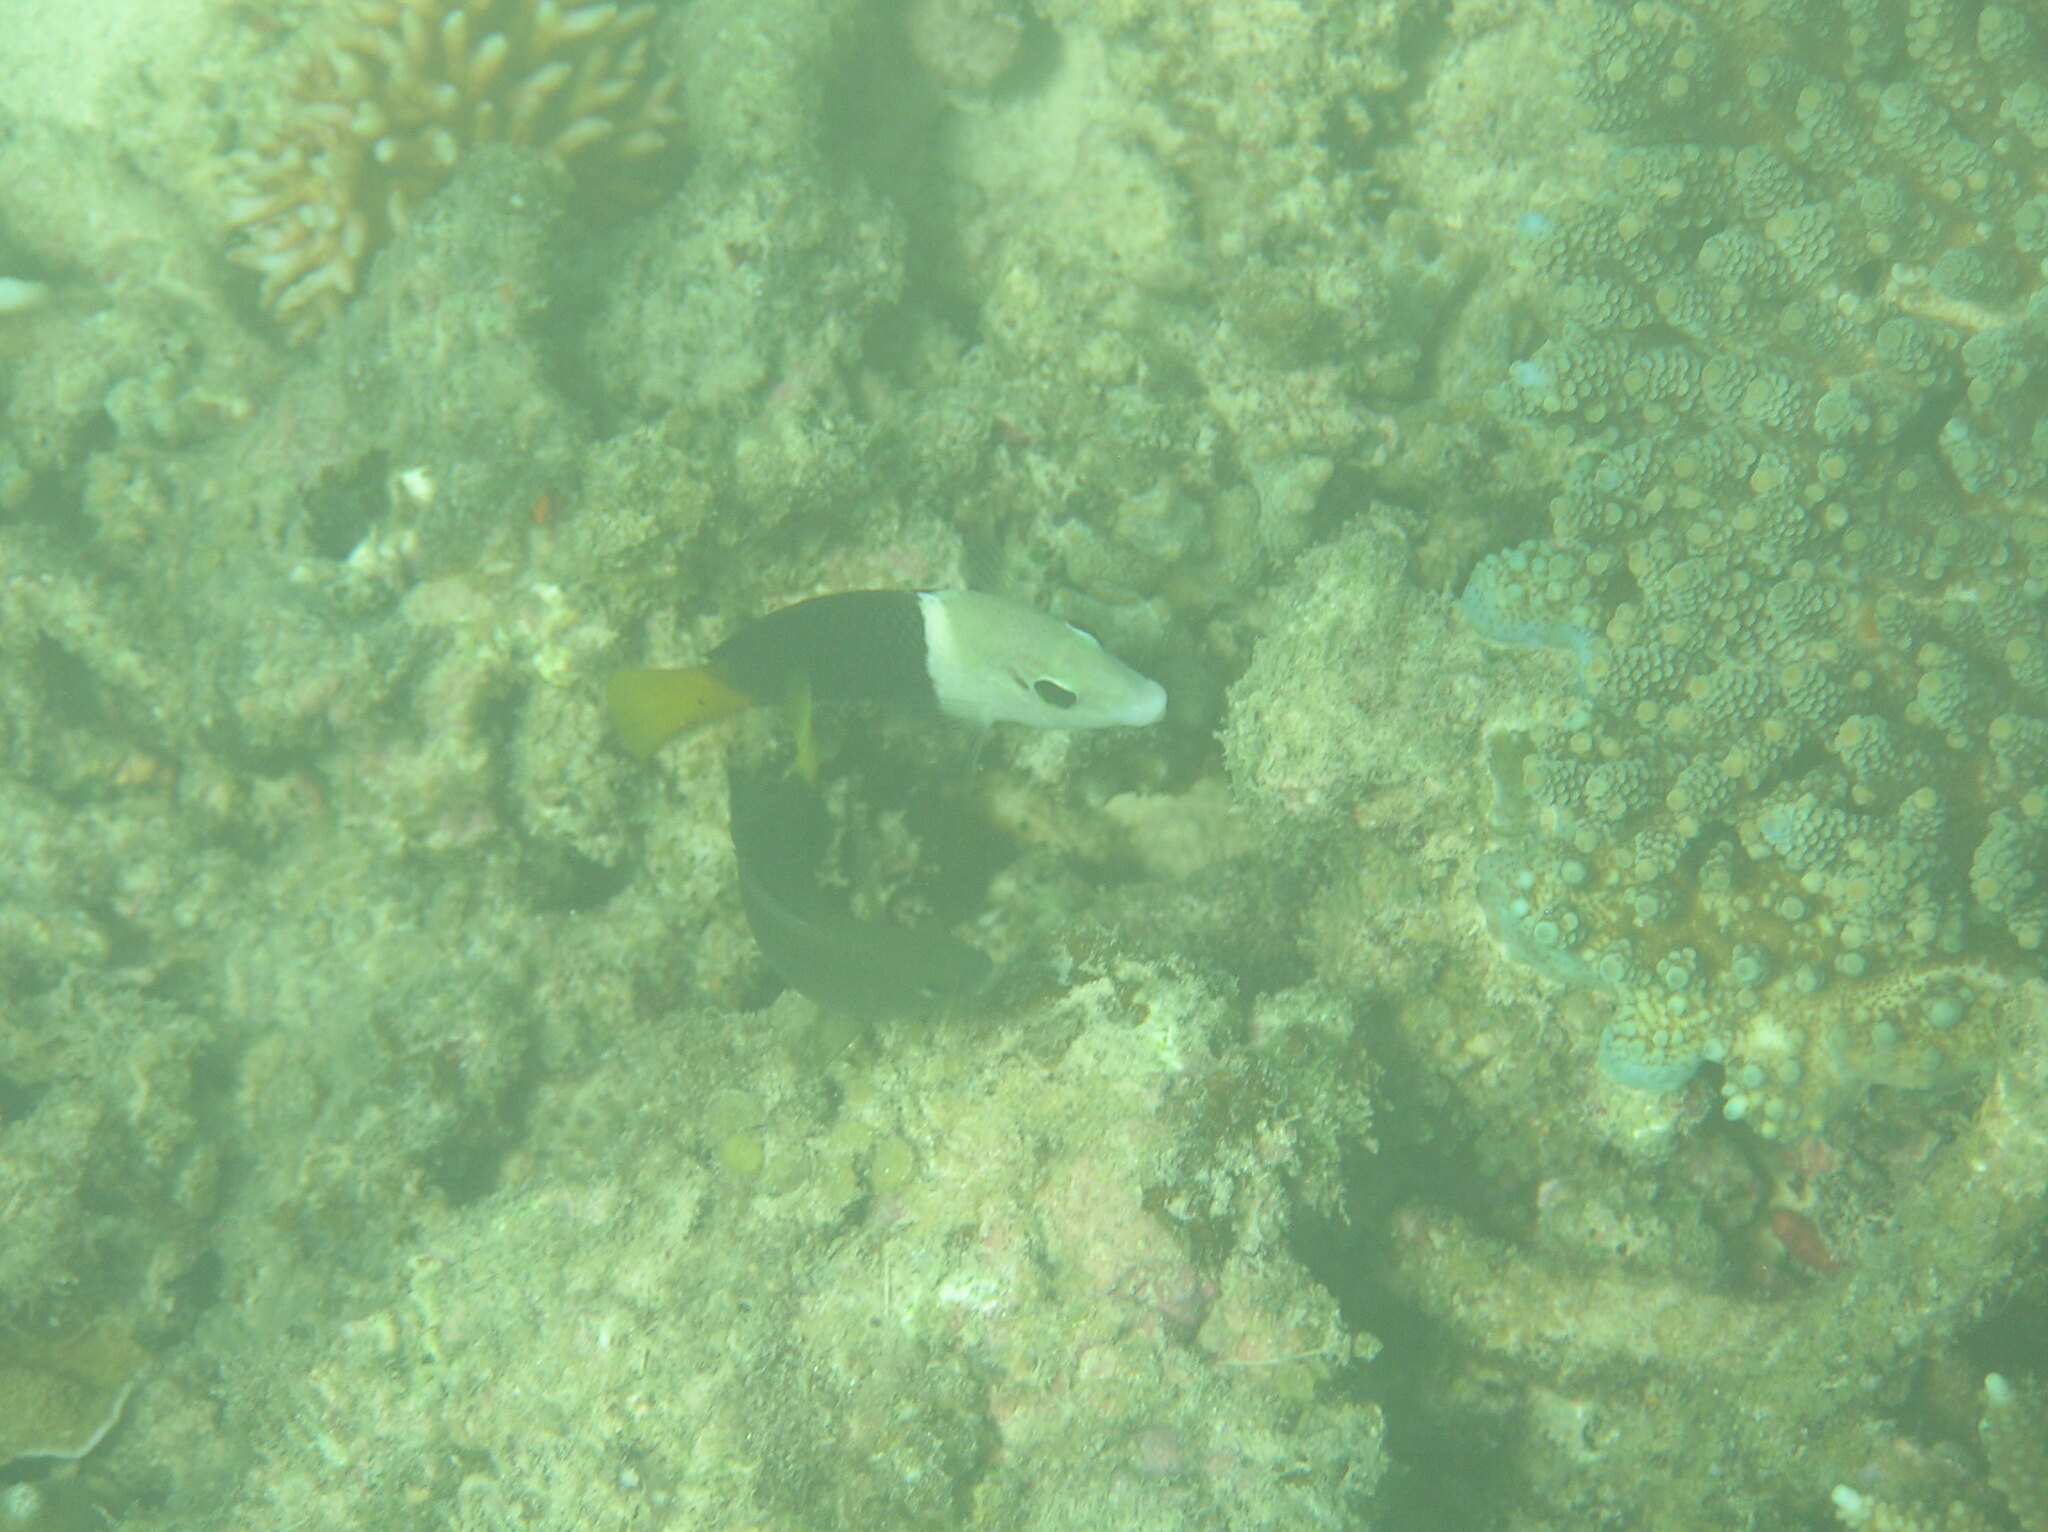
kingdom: Animalia
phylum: Chordata
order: Perciformes
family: Labridae
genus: Hemigymnus
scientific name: Hemigymnus melapterus
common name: Blackeye thicklip
